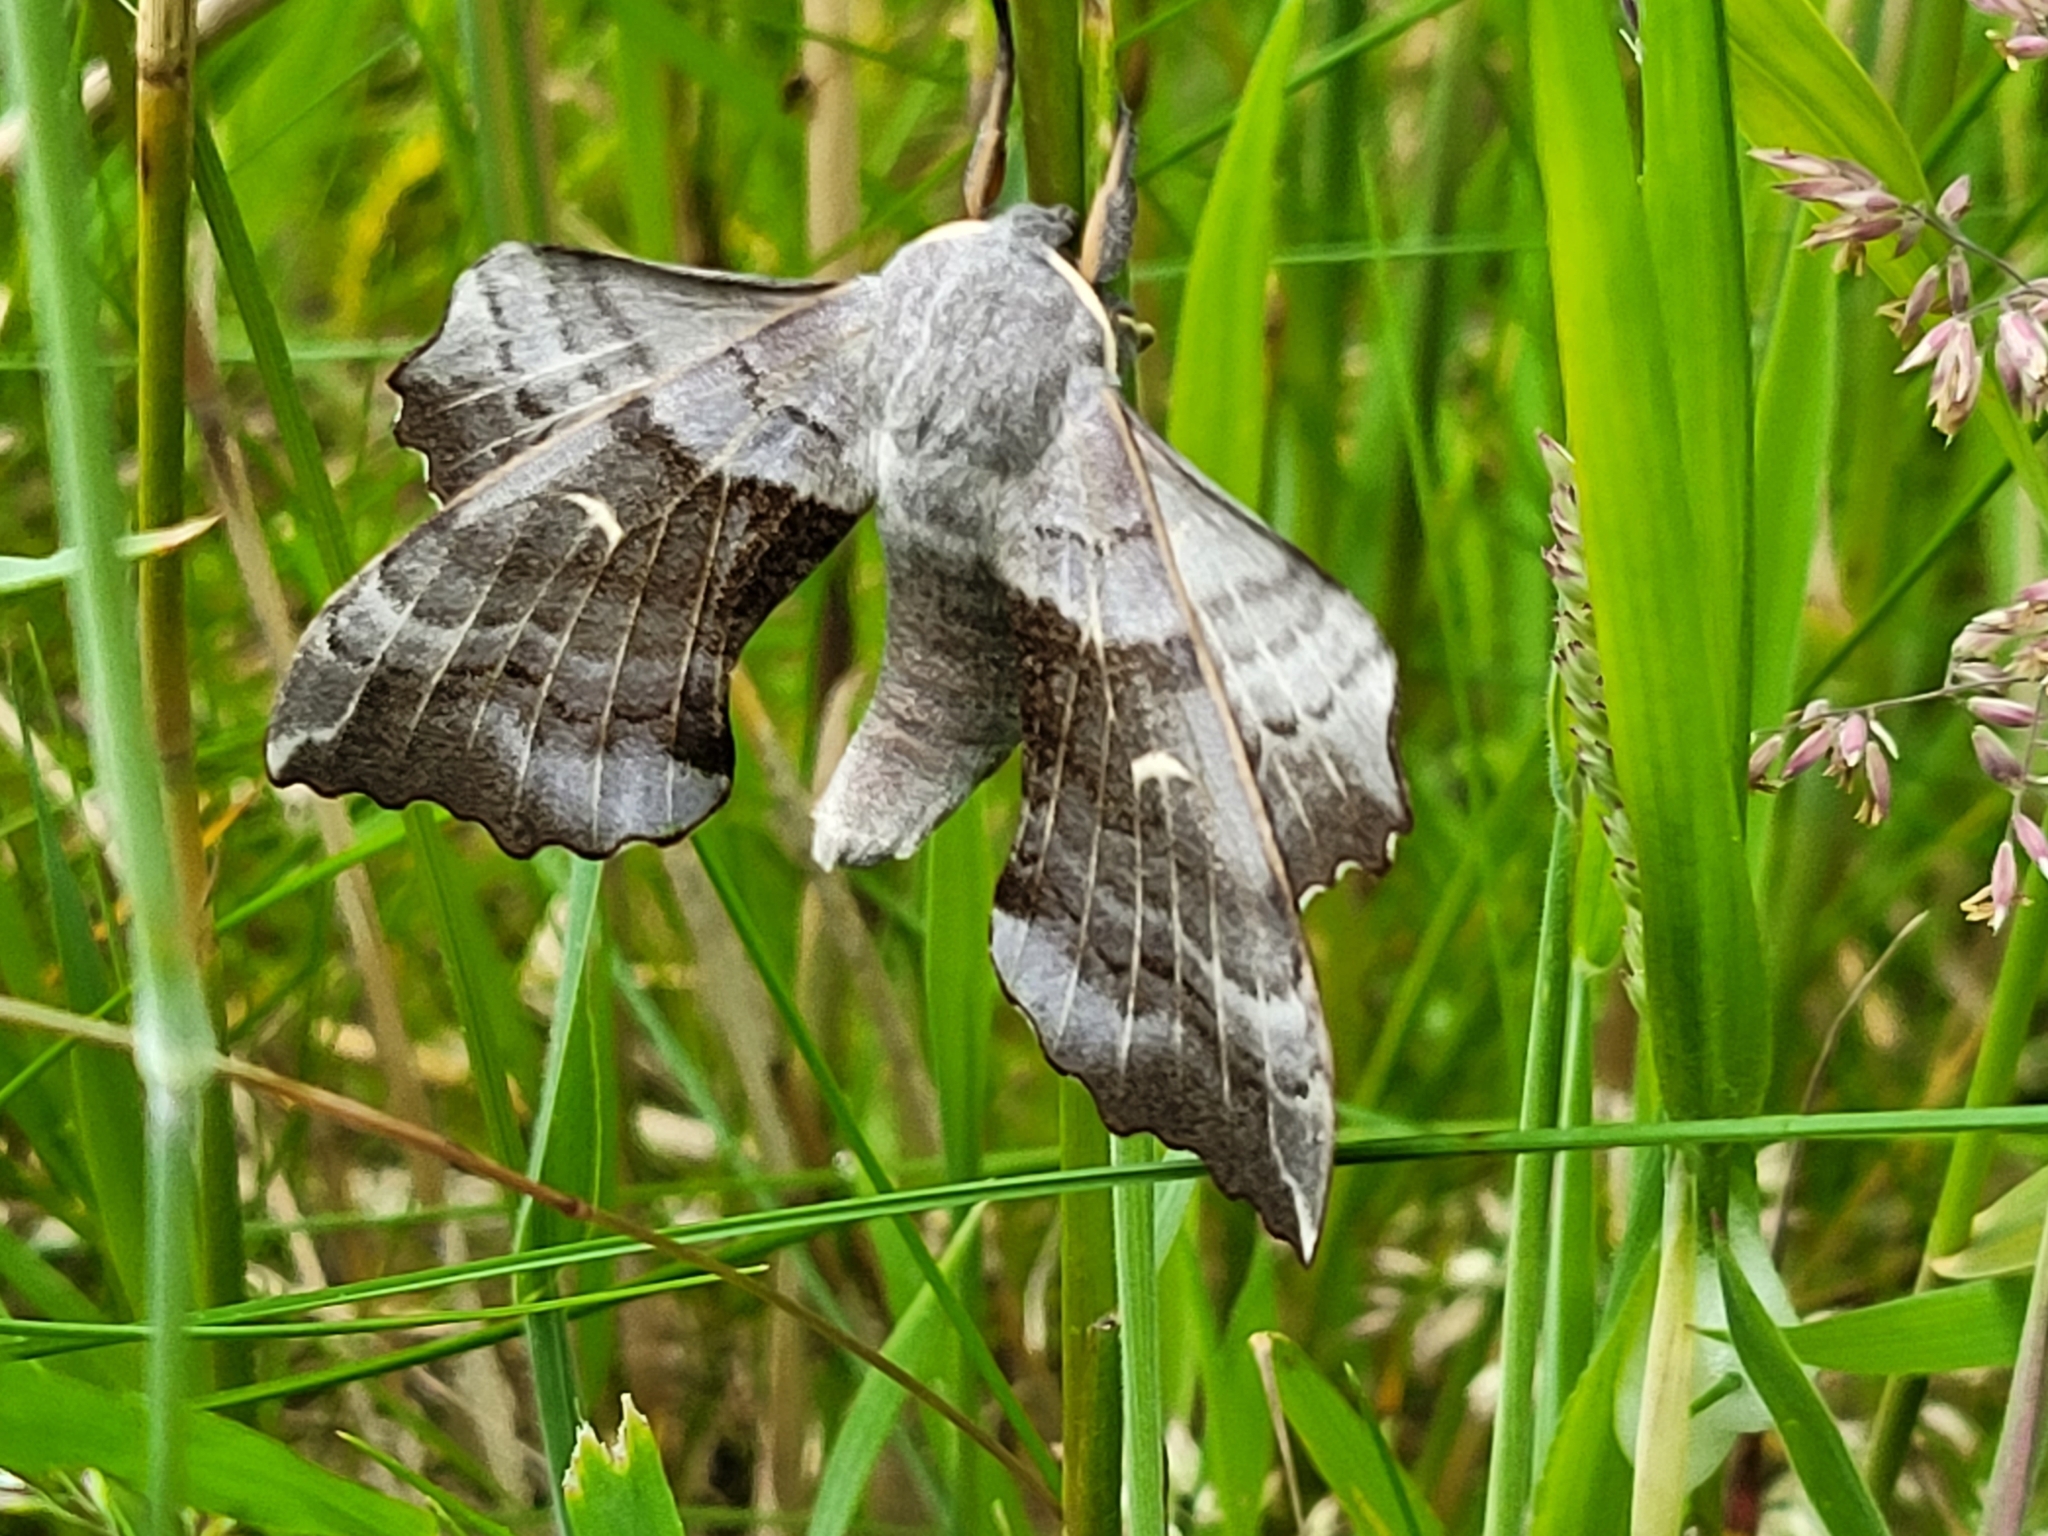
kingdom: Animalia
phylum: Arthropoda
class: Insecta
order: Lepidoptera
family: Sphingidae
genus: Laothoe
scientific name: Laothoe populi
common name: Poplar hawk-moth
